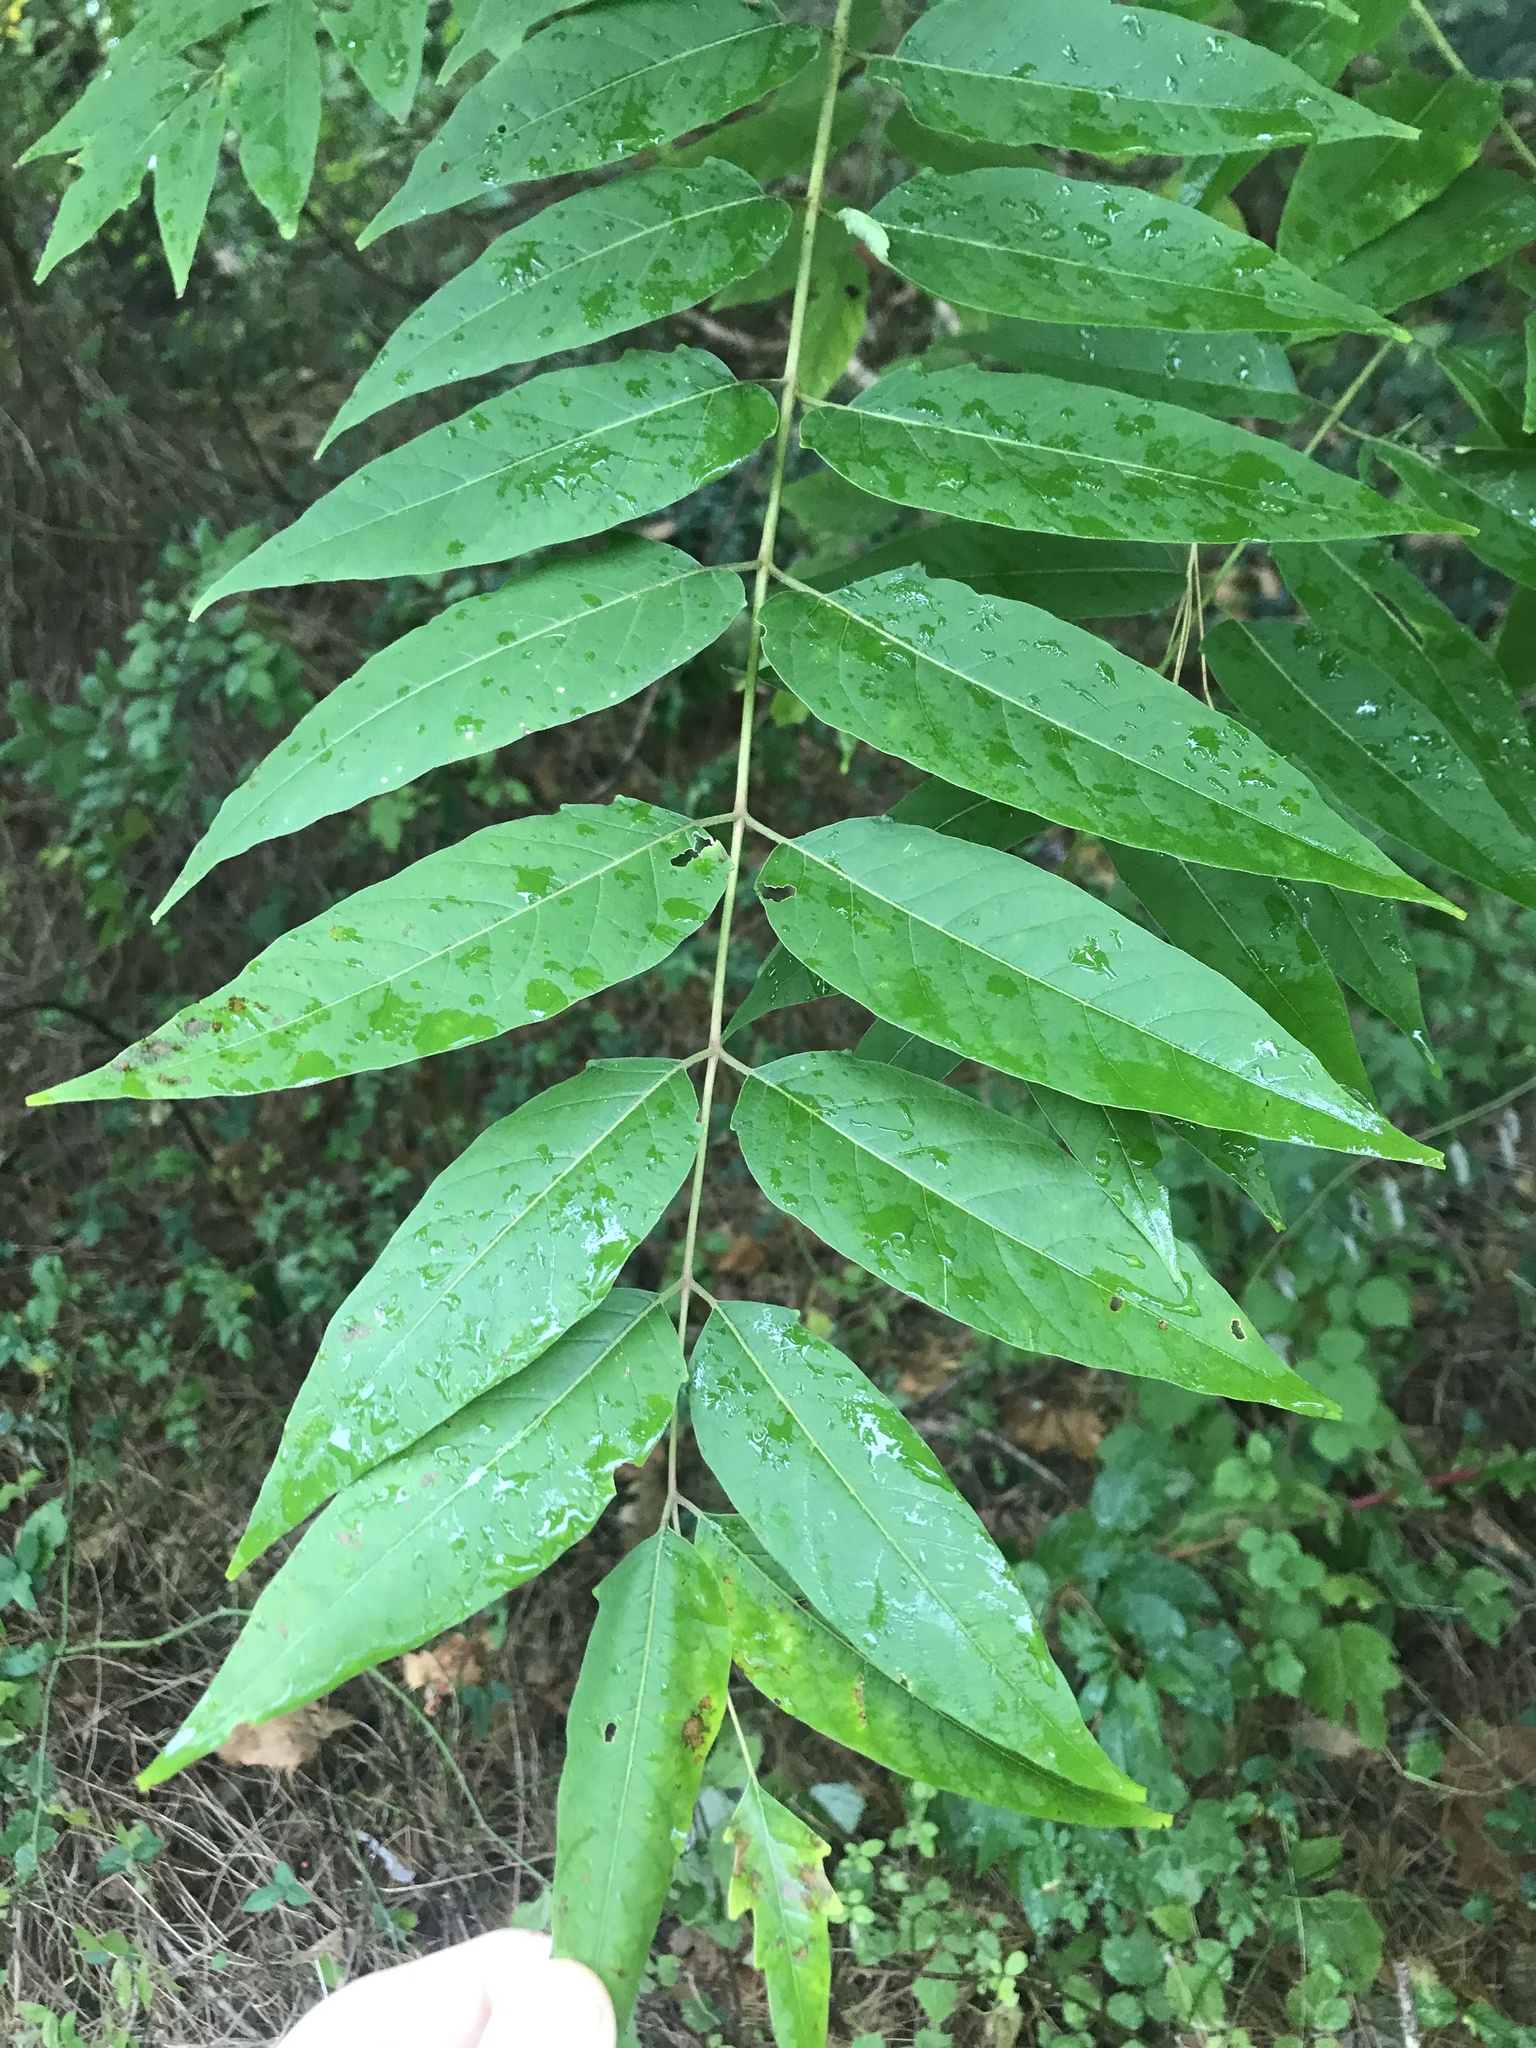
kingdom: Plantae
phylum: Tracheophyta
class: Magnoliopsida
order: Sapindales
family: Simaroubaceae
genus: Ailanthus
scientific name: Ailanthus altissima
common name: Tree-of-heaven
